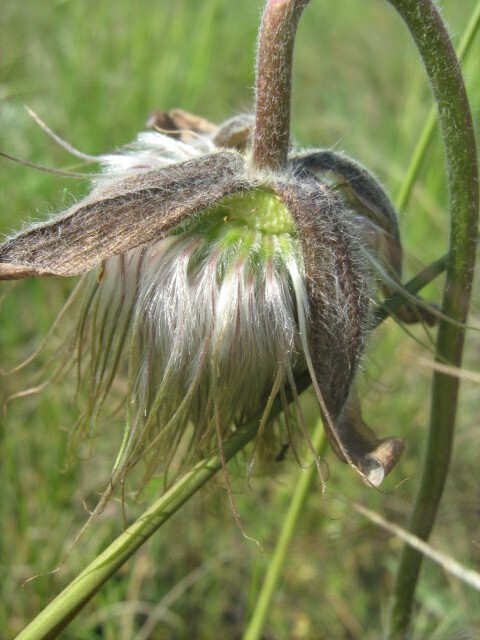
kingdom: Plantae
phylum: Tracheophyta
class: Magnoliopsida
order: Ranunculales
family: Ranunculaceae
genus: Pulsatilla
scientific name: Pulsatilla pratensis
